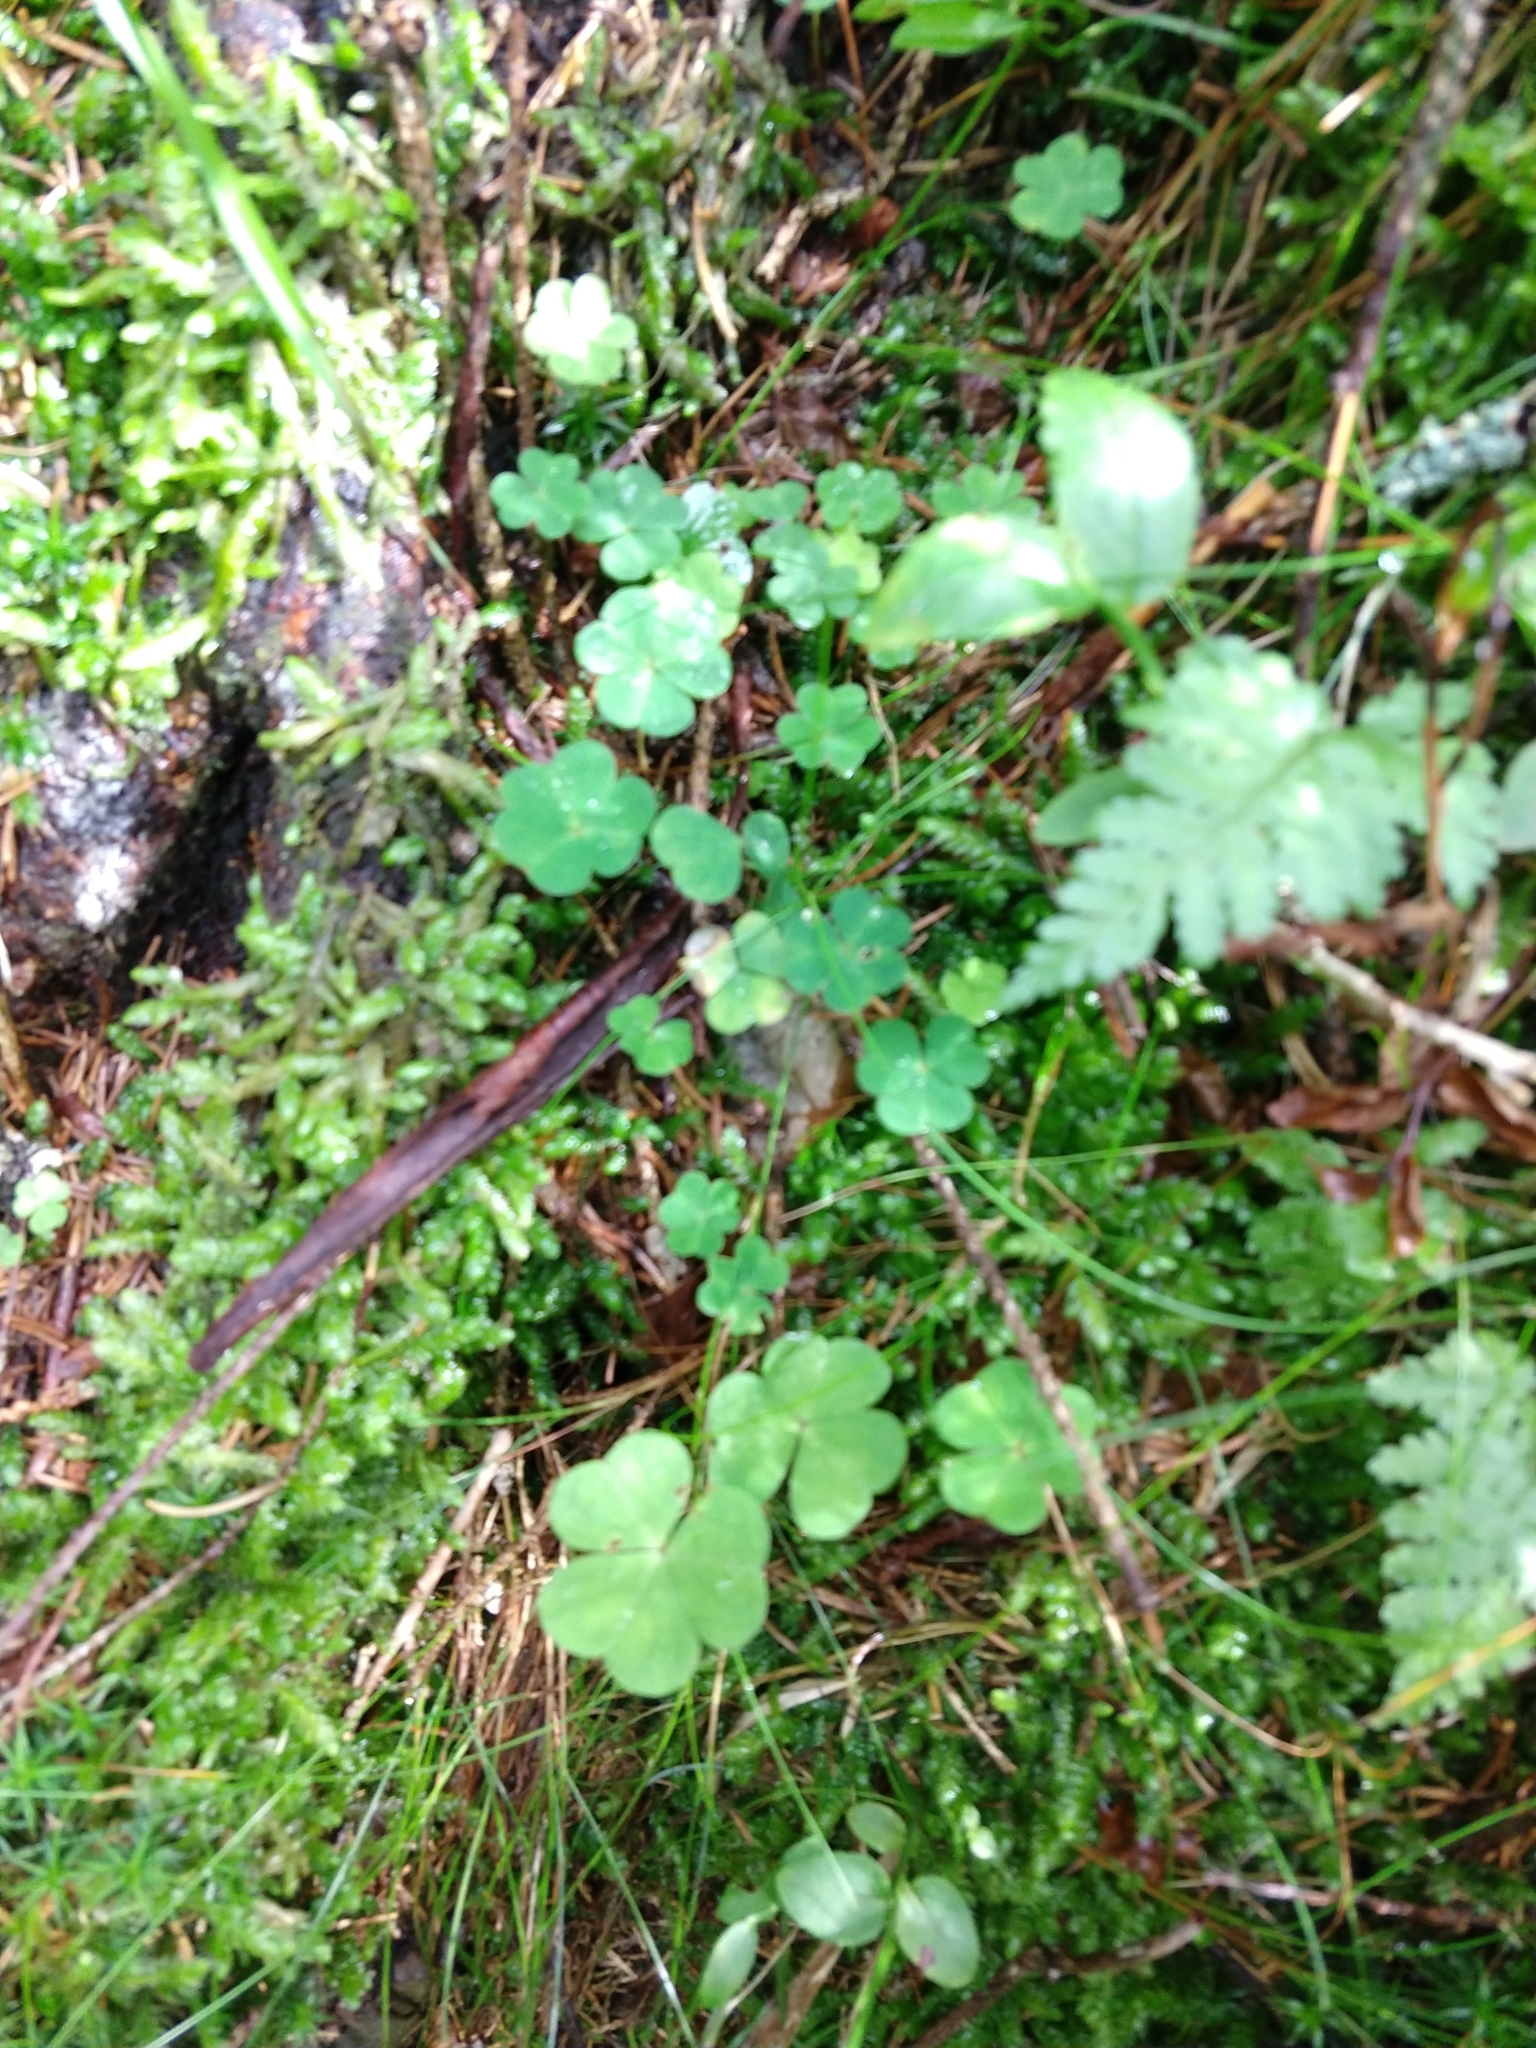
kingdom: Plantae
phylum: Tracheophyta
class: Magnoliopsida
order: Oxalidales
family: Oxalidaceae
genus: Oxalis
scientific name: Oxalis acetosella
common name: Wood-sorrel
